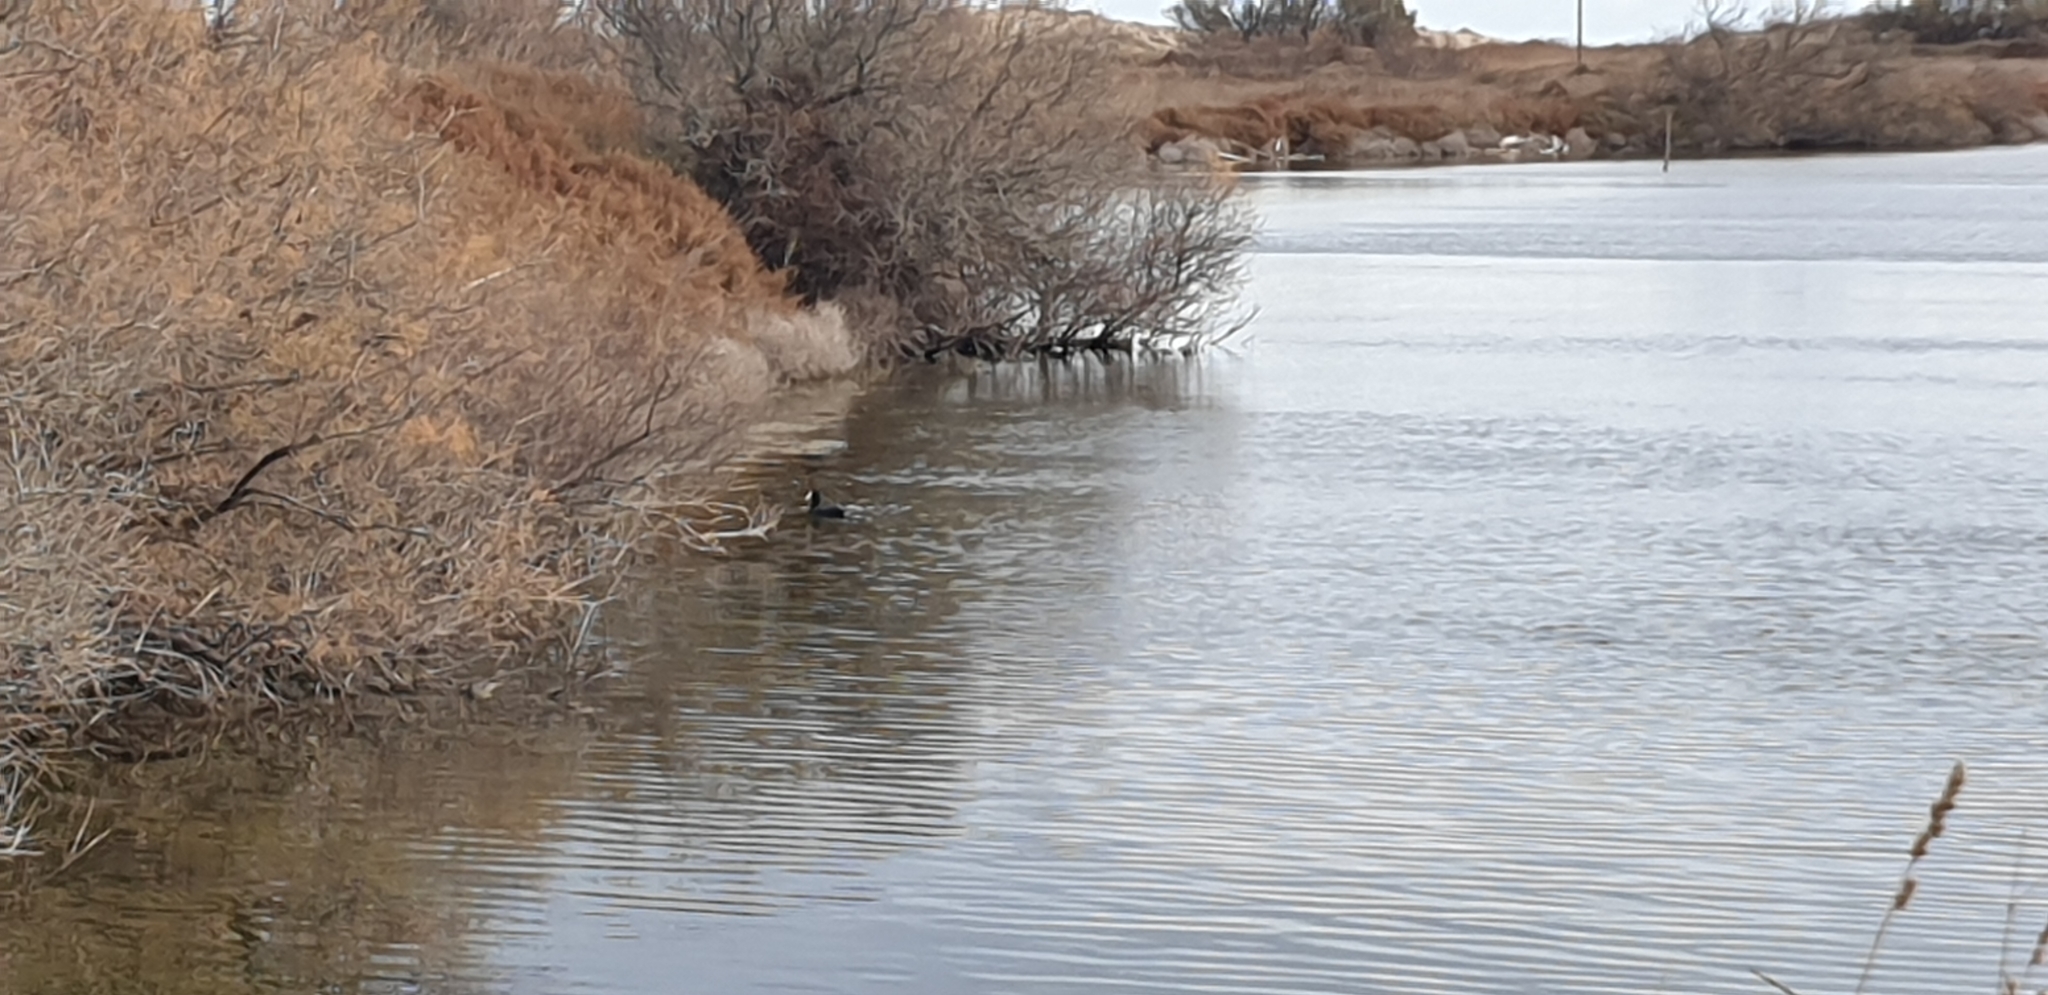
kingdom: Animalia
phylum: Chordata
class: Aves
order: Gruiformes
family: Rallidae
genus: Fulica
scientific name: Fulica atra
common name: Eurasian coot
